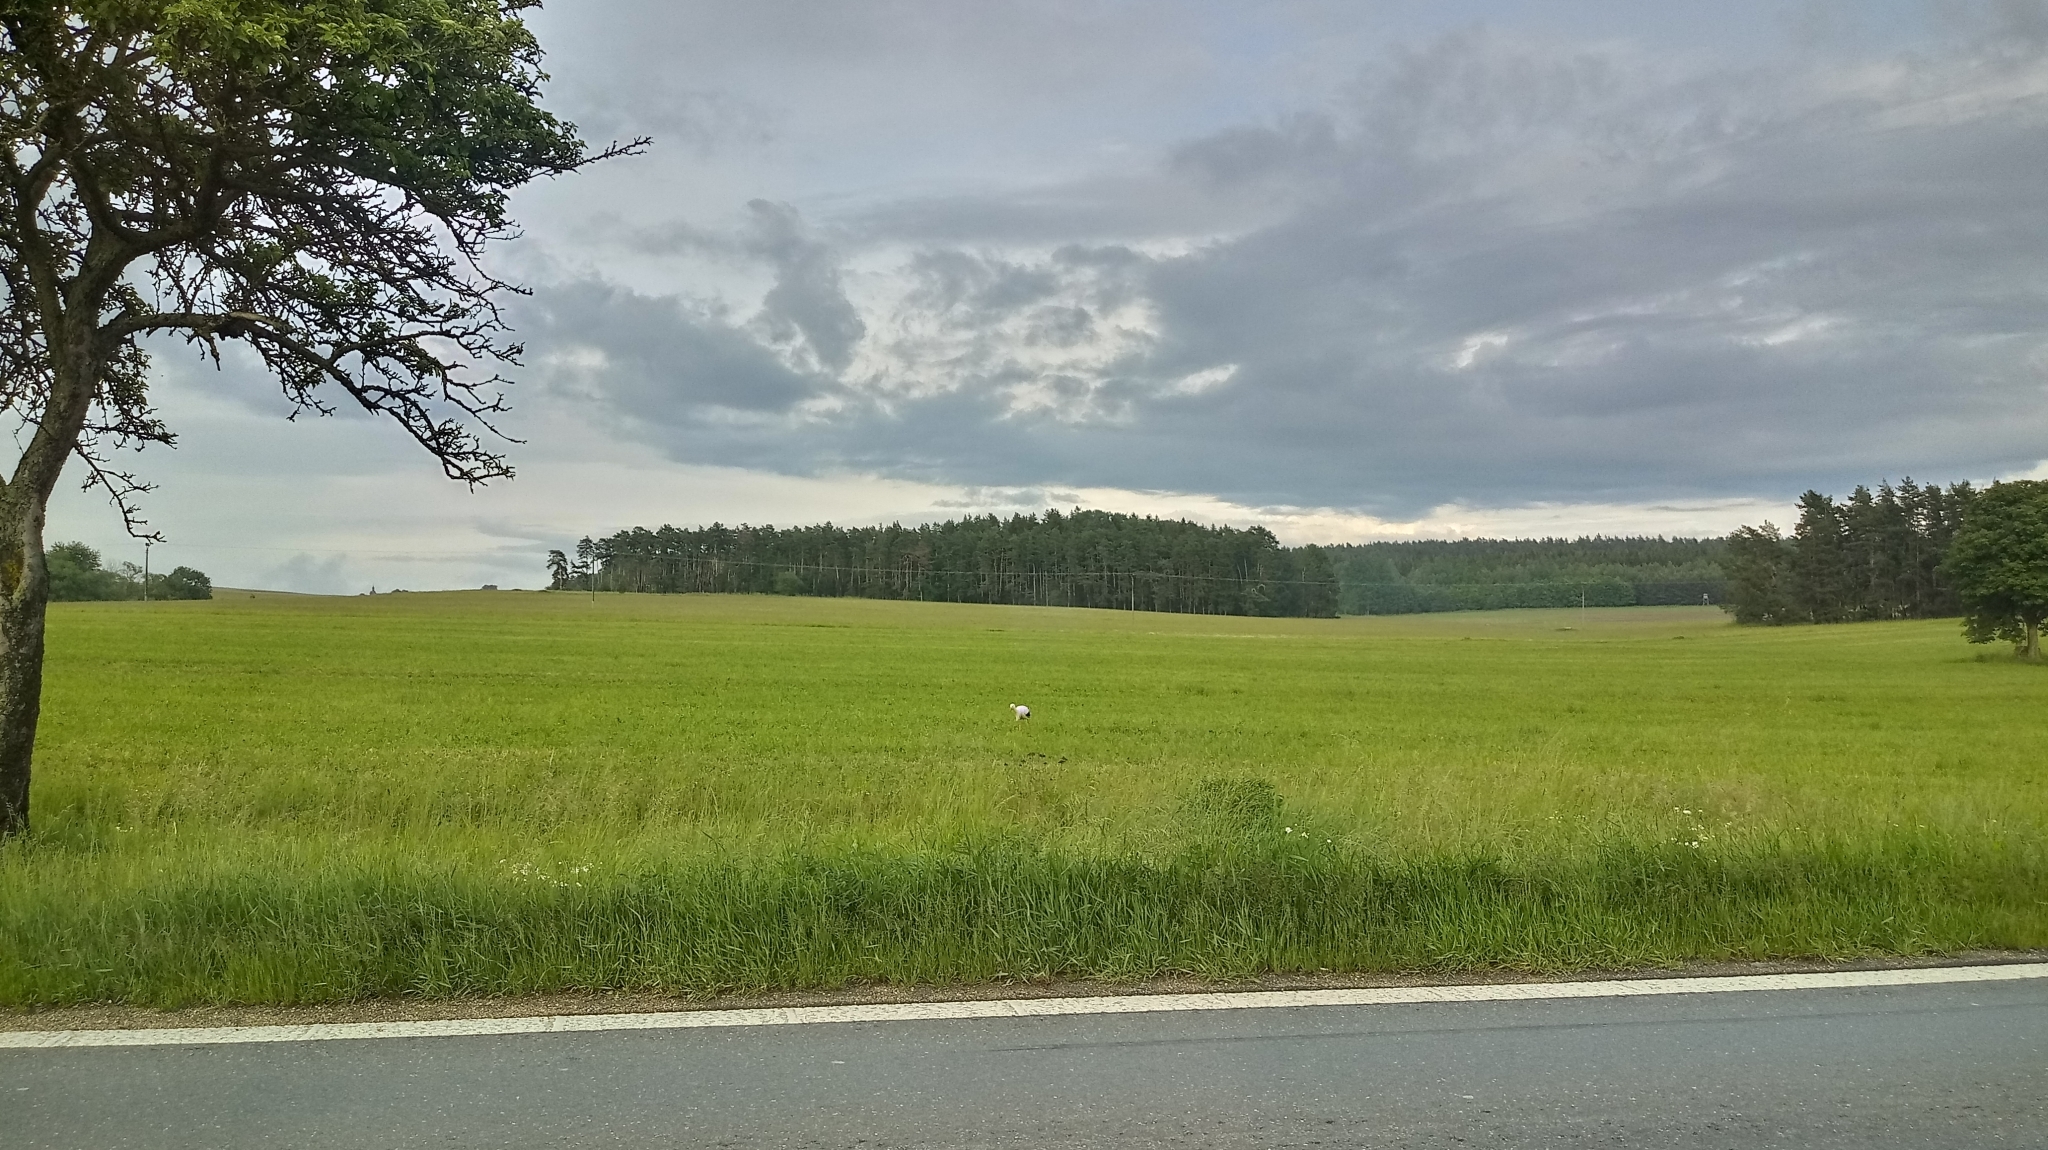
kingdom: Animalia
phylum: Chordata
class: Aves
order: Ciconiiformes
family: Ciconiidae
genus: Ciconia
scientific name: Ciconia ciconia
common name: White stork
